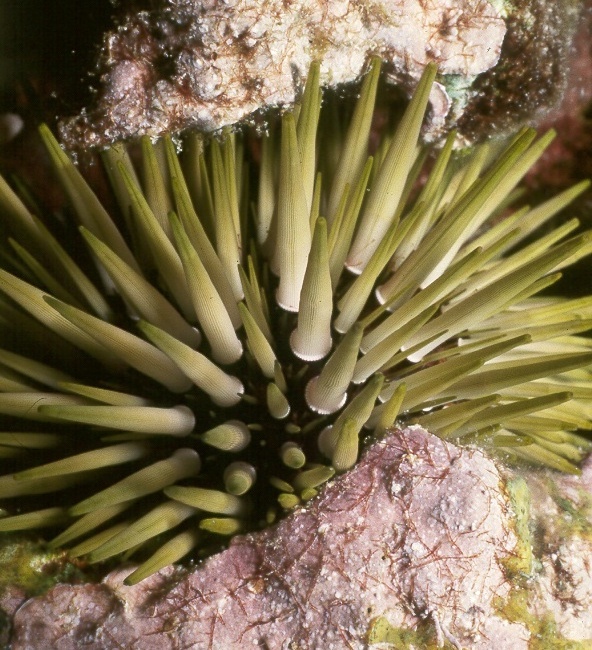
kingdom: Animalia
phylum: Echinodermata
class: Echinoidea
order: Camarodonta
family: Echinometridae
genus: Echinometra
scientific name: Echinometra mathaei
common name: Rock-boring urchin
